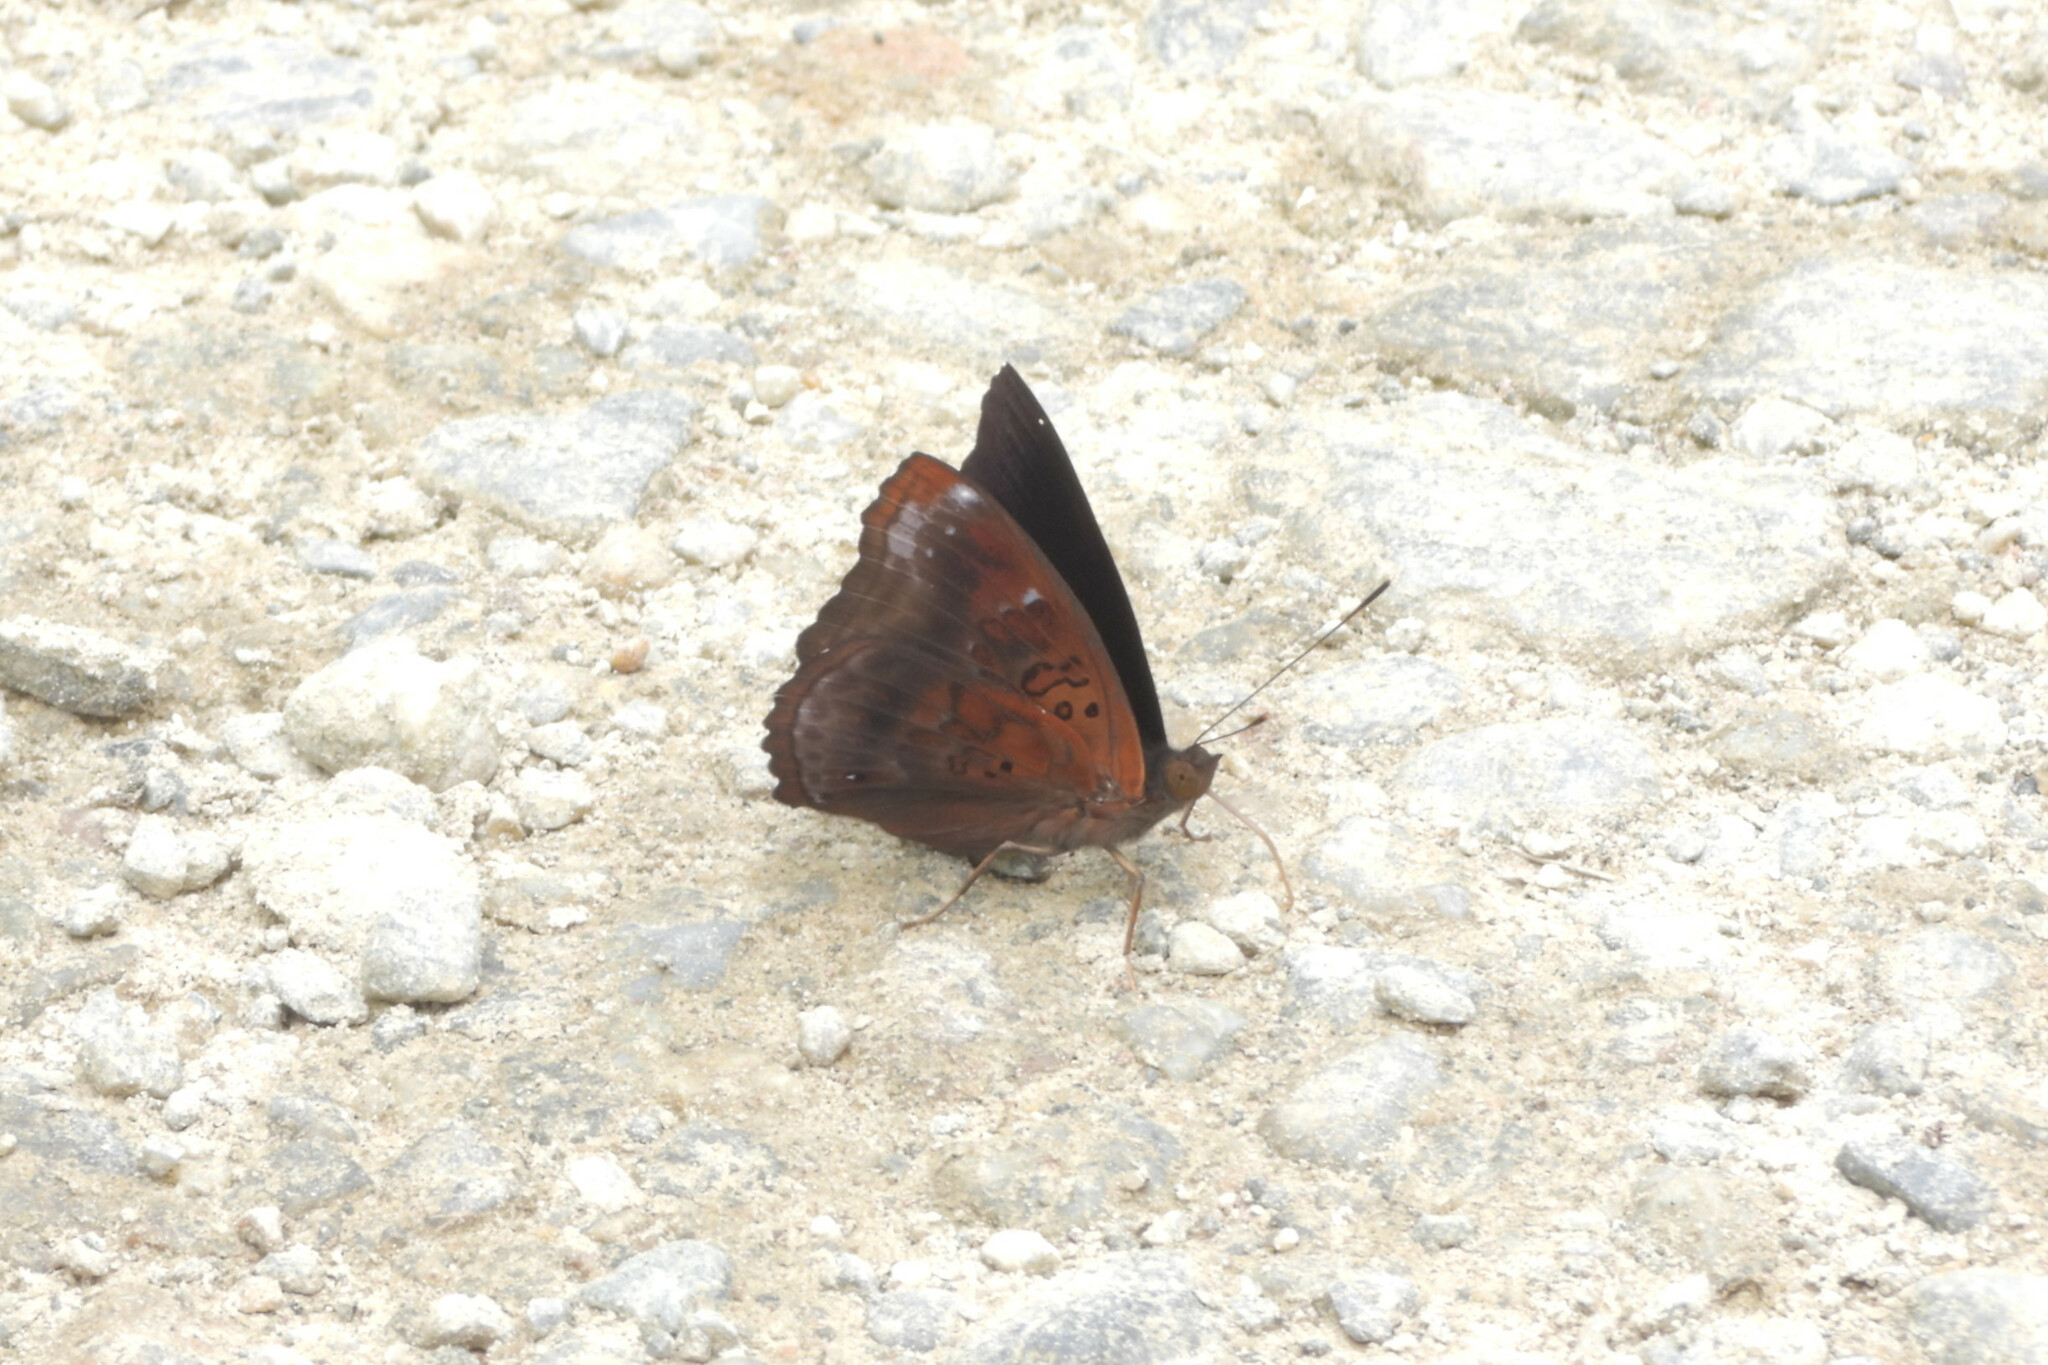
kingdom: Animalia
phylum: Arthropoda
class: Insecta
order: Lepidoptera
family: Nymphalidae
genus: Apatura
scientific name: Apatura Rohana spec
